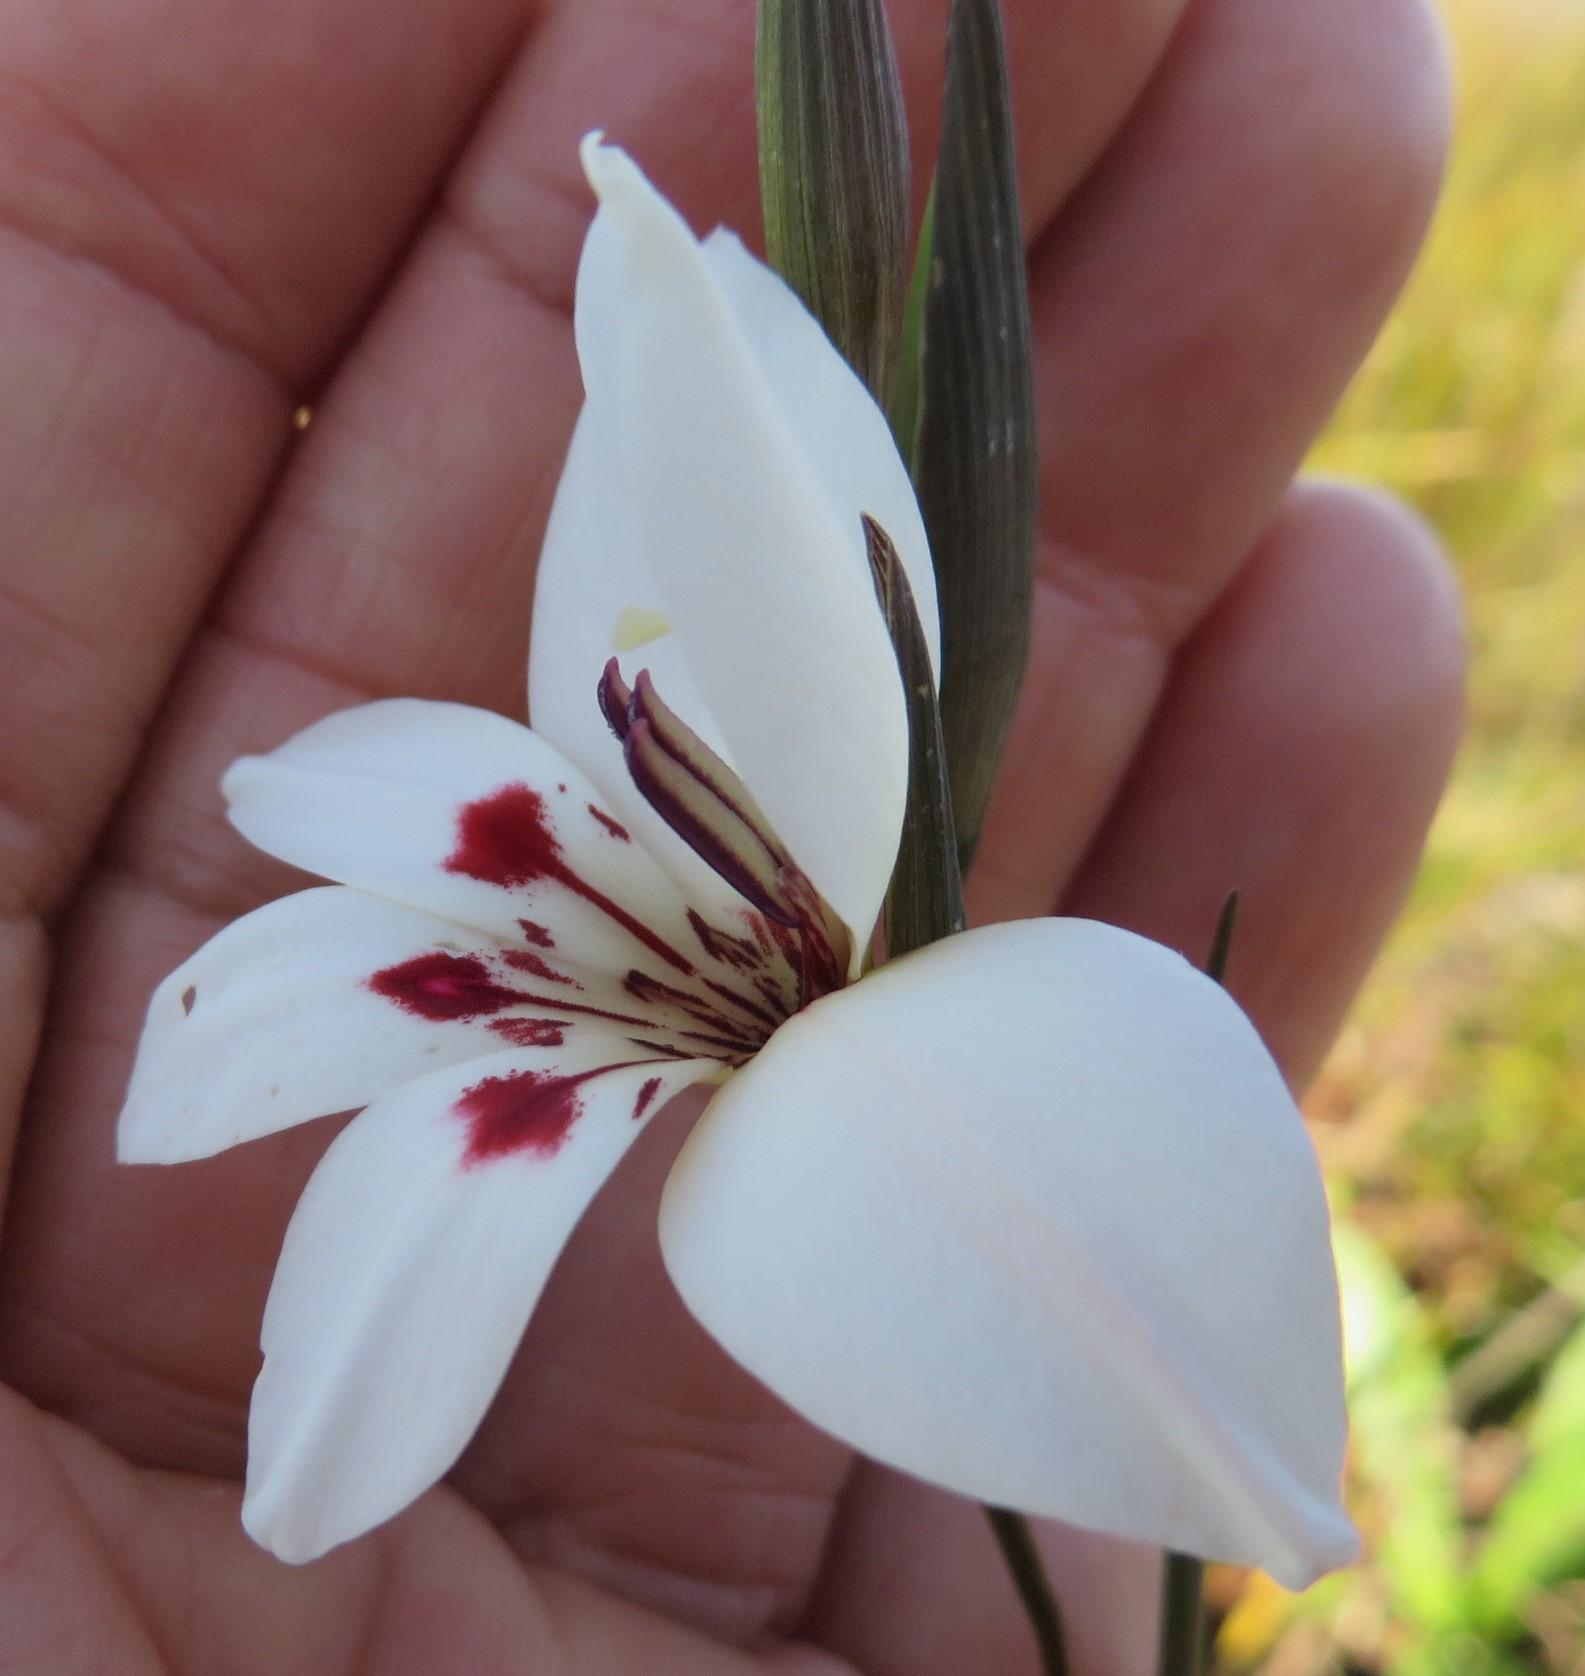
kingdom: Plantae
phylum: Tracheophyta
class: Liliopsida
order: Asparagales
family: Iridaceae
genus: Gladiolus
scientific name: Gladiolus debilis
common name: Painted-lady
